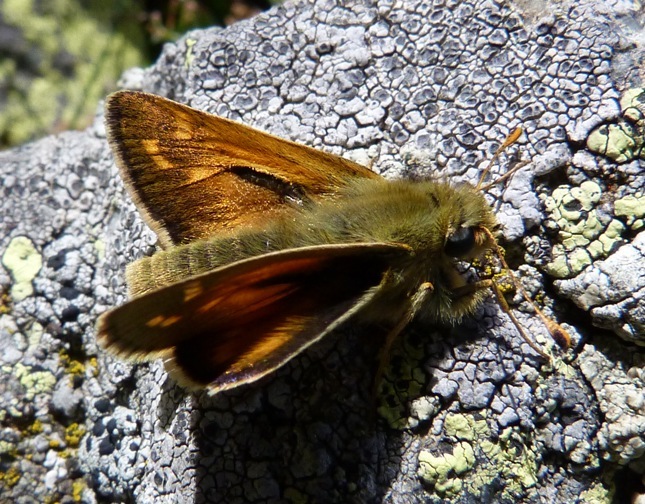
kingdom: Animalia
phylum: Arthropoda
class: Insecta
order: Lepidoptera
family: Hesperiidae
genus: Hesperia
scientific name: Hesperia comma
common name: Common branded skipper
